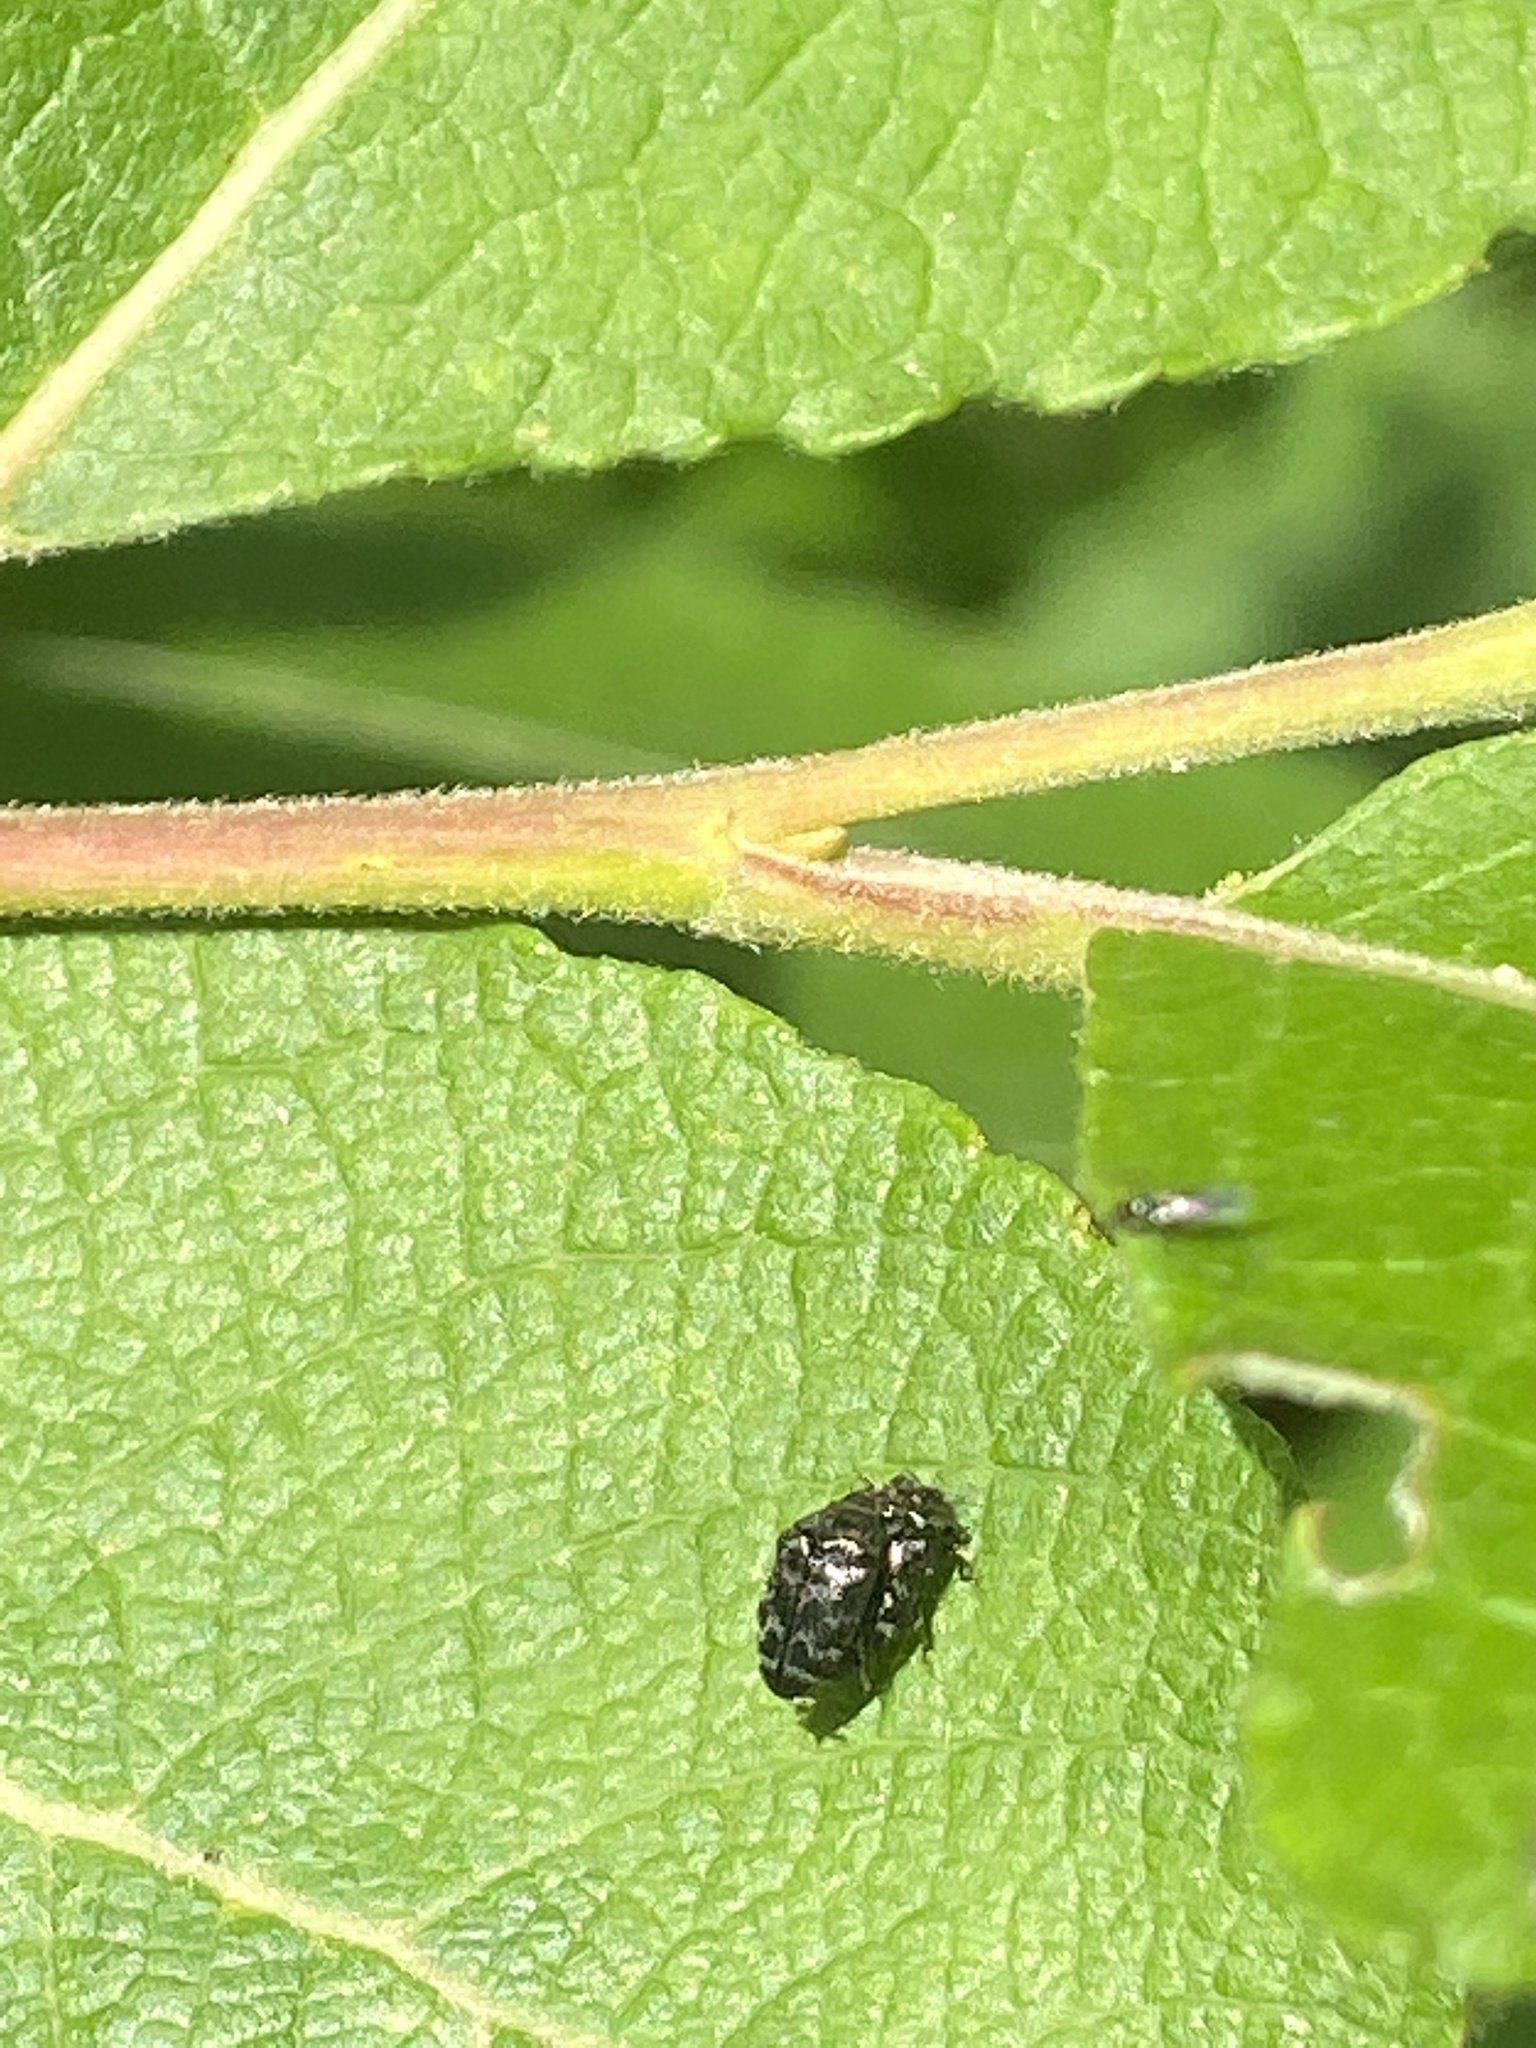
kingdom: Animalia
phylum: Arthropoda
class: Insecta
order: Coleoptera
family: Buprestidae
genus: Trachys
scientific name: Trachys minutus
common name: Metallic wood-boring beetle
